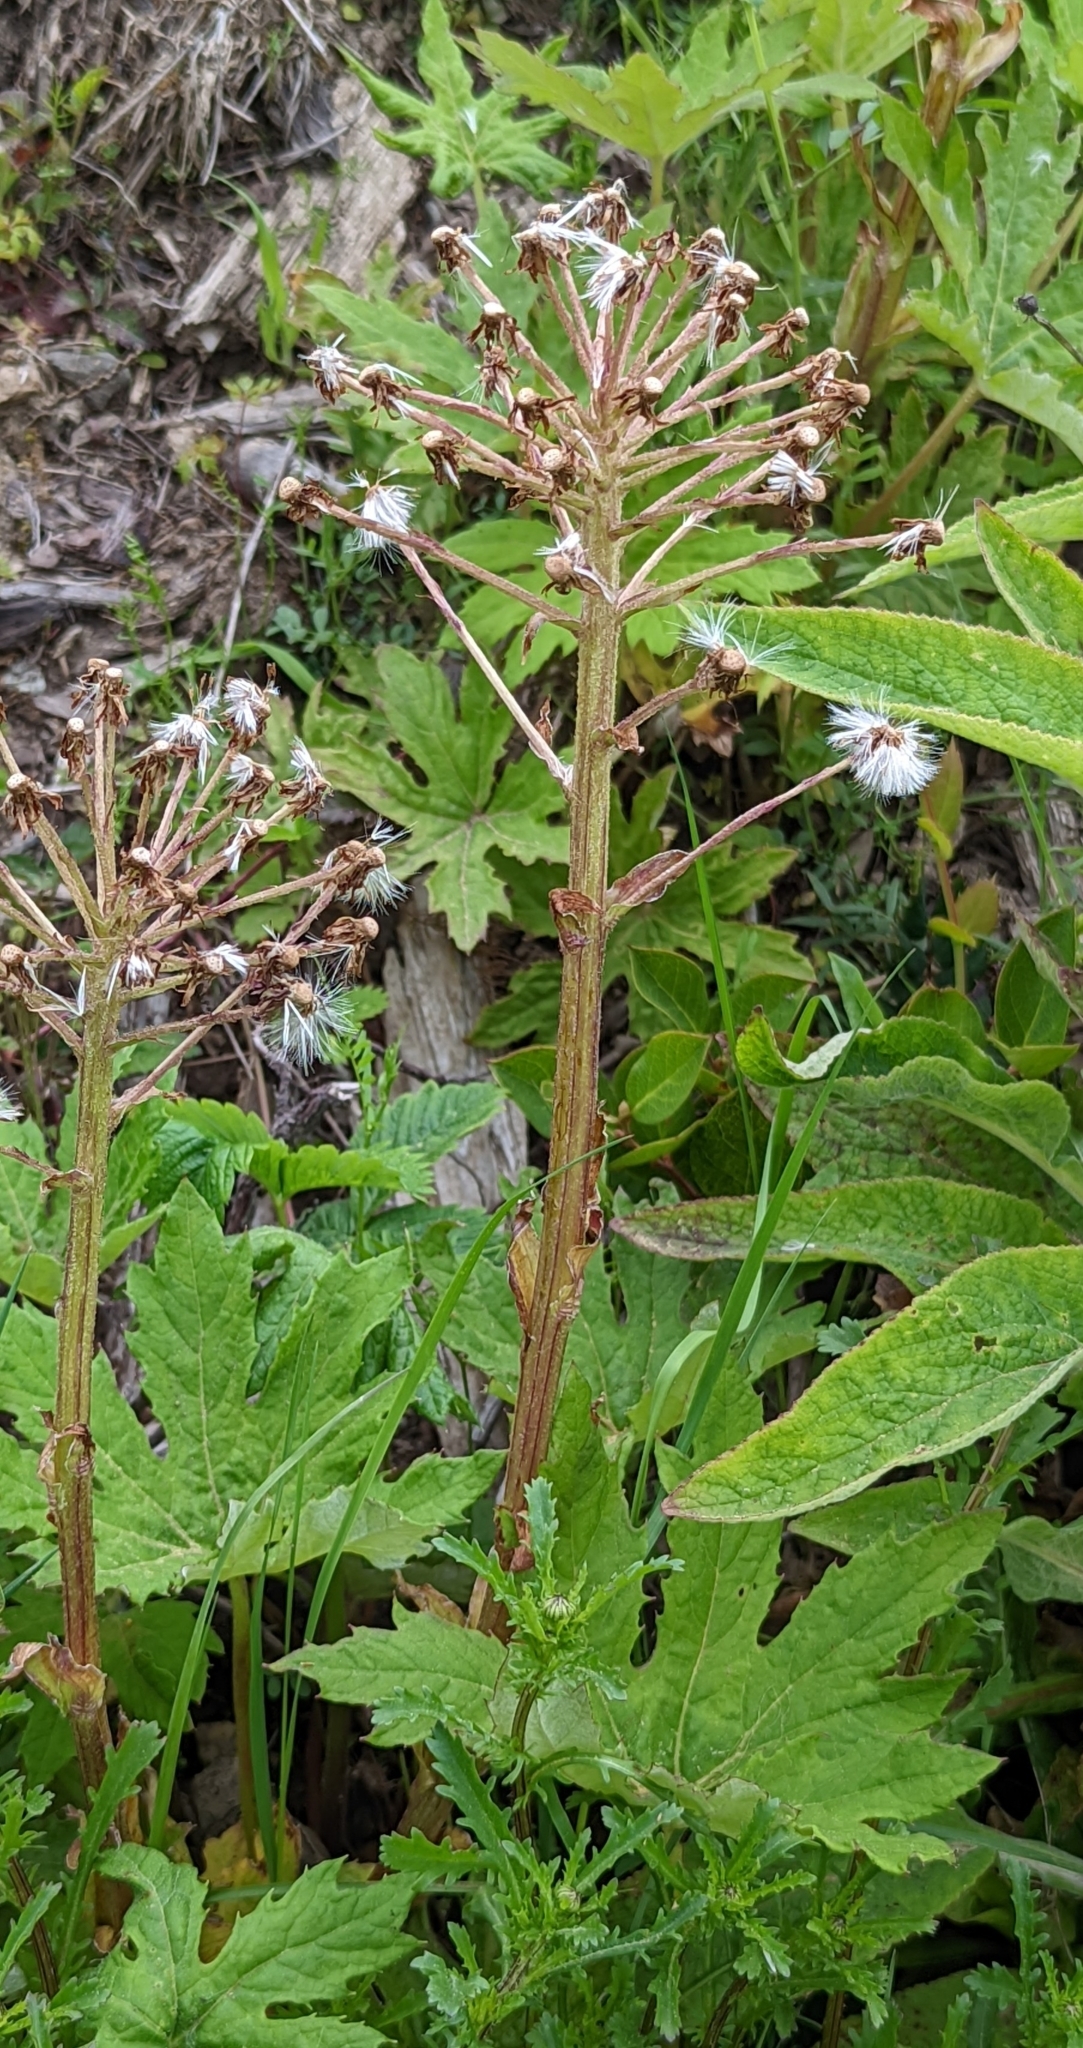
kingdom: Plantae
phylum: Tracheophyta
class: Magnoliopsida
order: Asterales
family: Asteraceae
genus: Petasites
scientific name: Petasites frigidus
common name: Arctic butterbur
